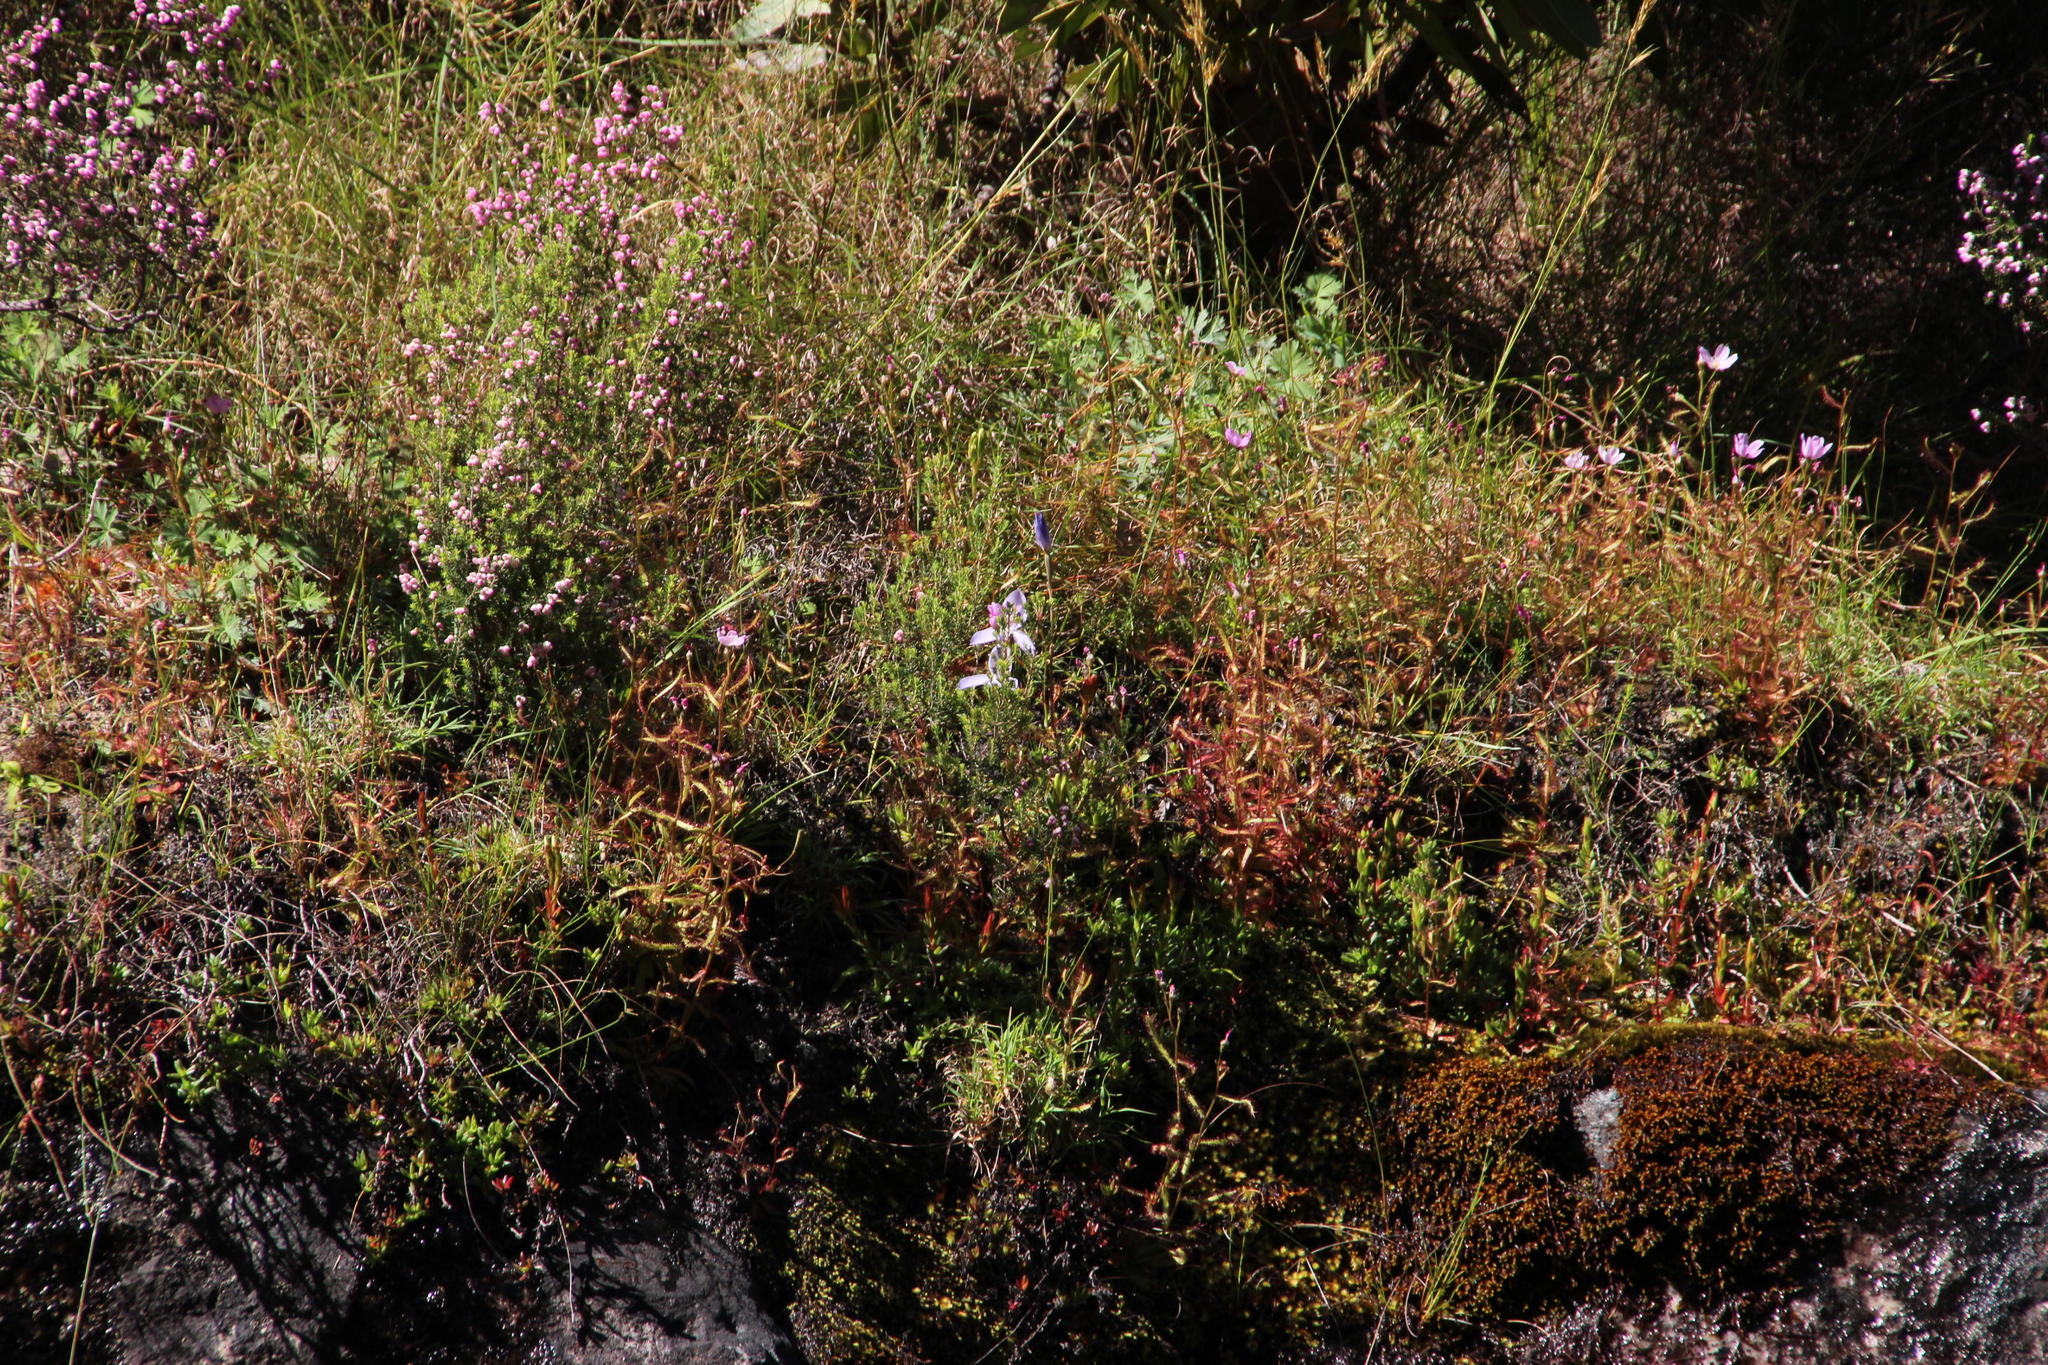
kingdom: Plantae
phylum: Tracheophyta
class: Liliopsida
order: Asparagales
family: Orchidaceae
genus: Disa
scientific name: Disa maculata
